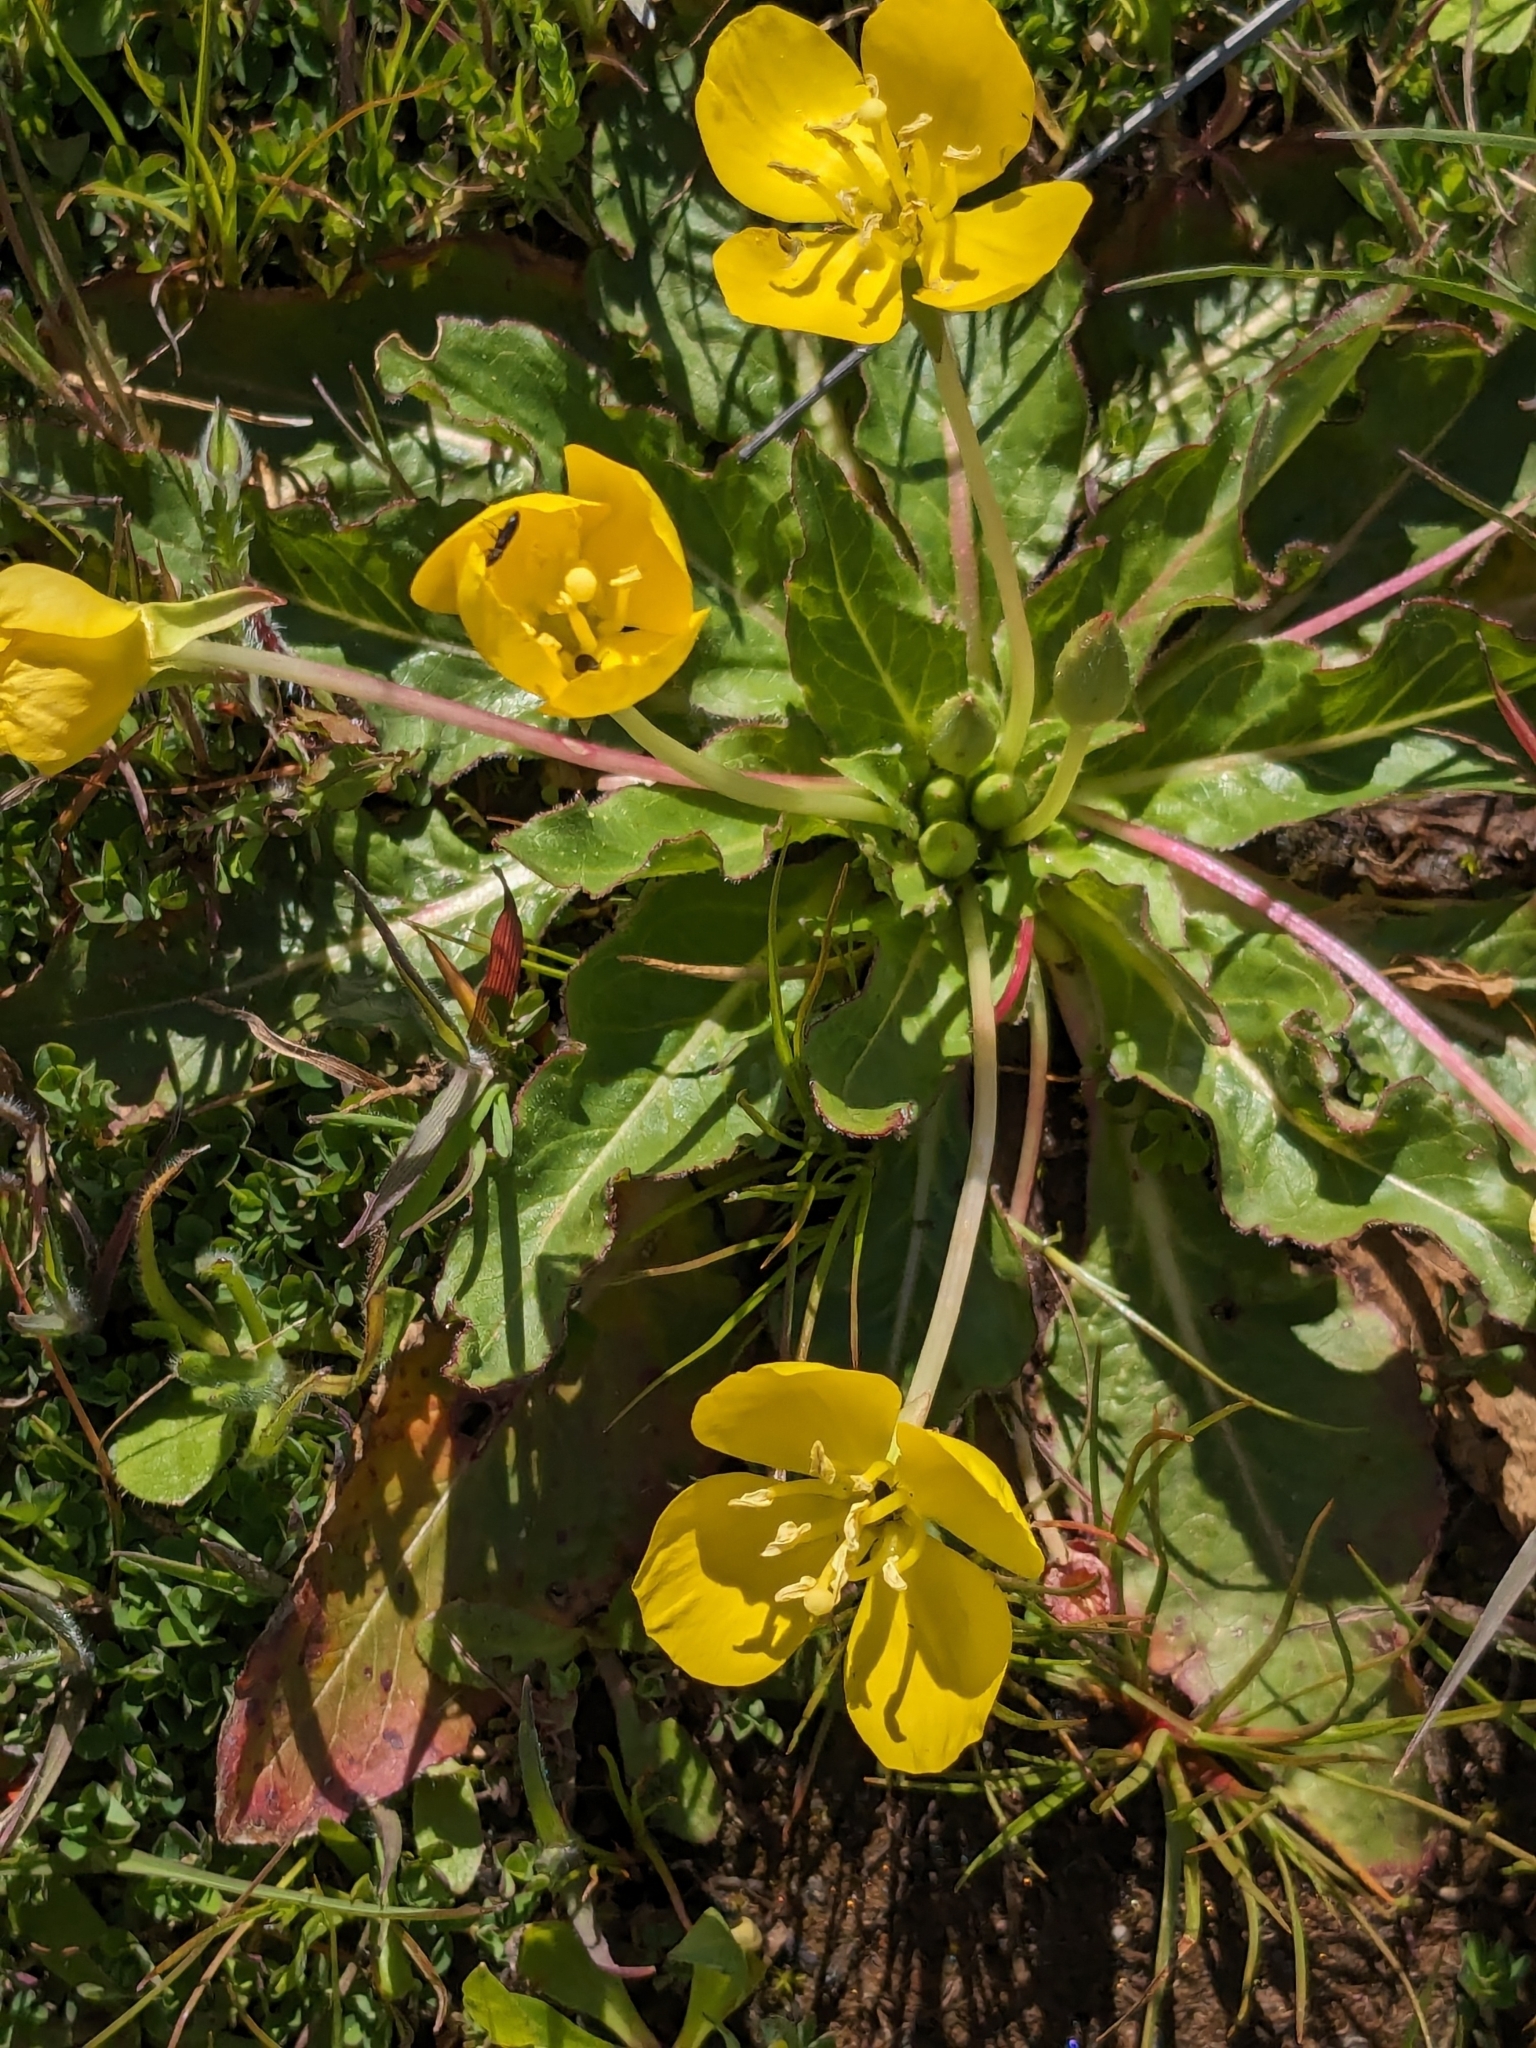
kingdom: Plantae
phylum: Tracheophyta
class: Magnoliopsida
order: Myrtales
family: Onagraceae
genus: Taraxia
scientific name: Taraxia ovata
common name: Goldeneggs
